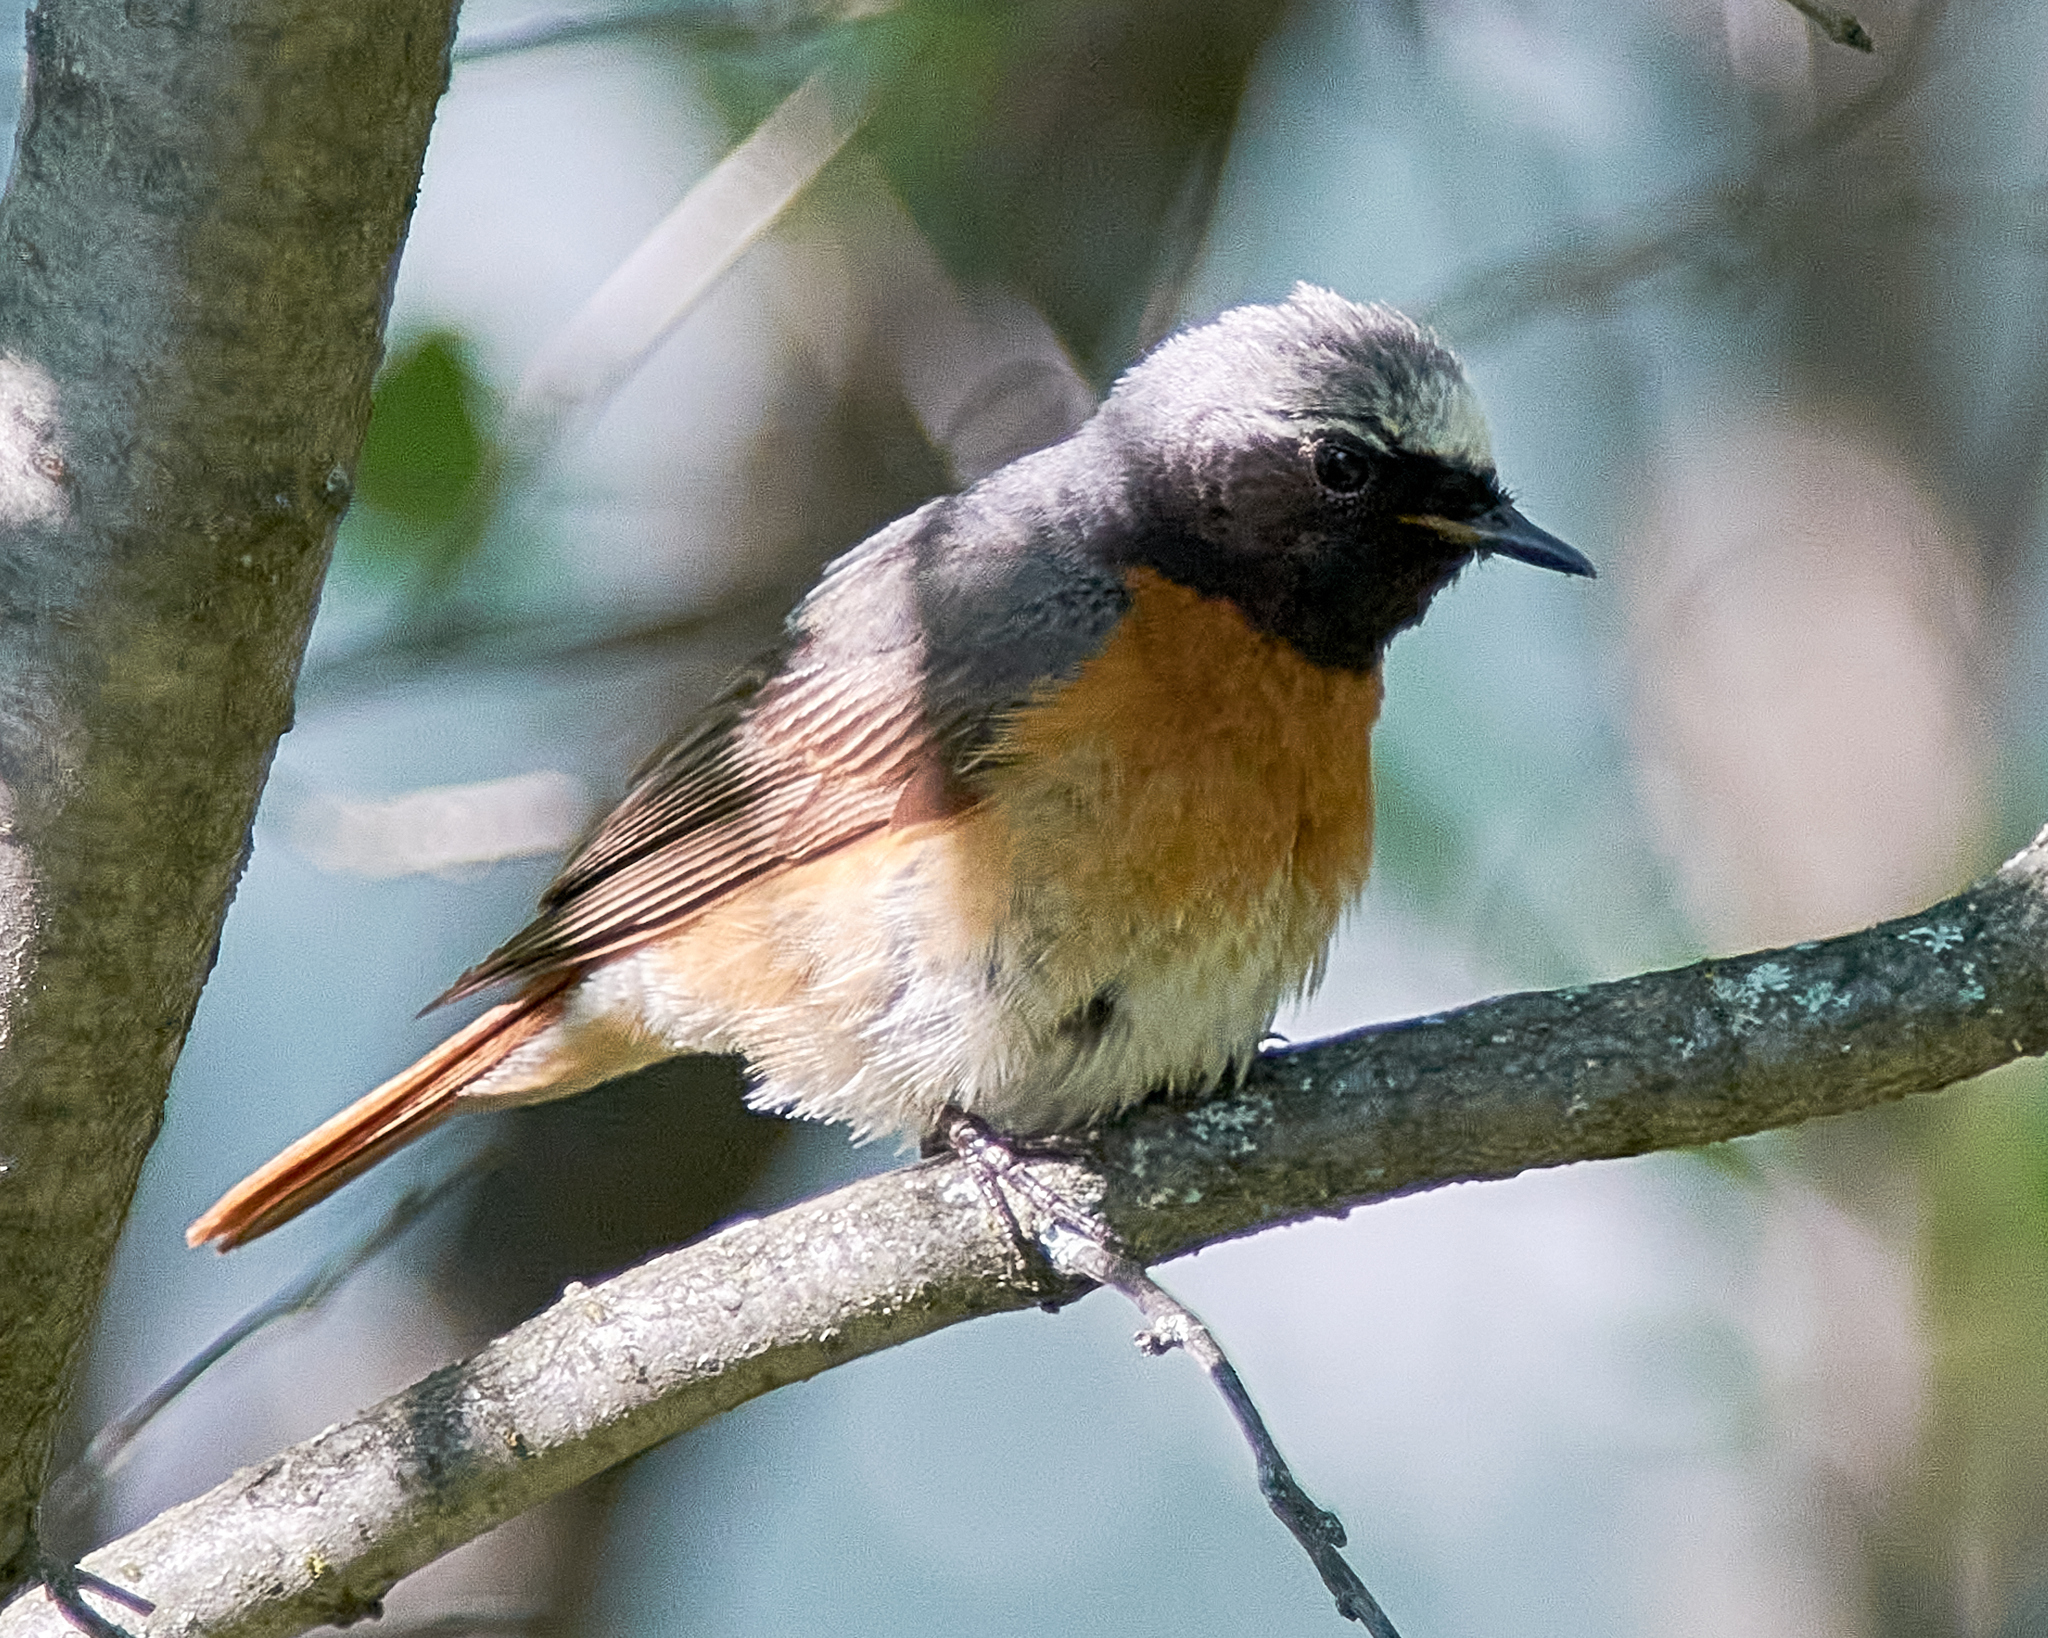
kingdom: Animalia
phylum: Chordata
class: Aves
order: Passeriformes
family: Muscicapidae
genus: Phoenicurus
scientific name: Phoenicurus phoenicurus
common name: Common redstart
